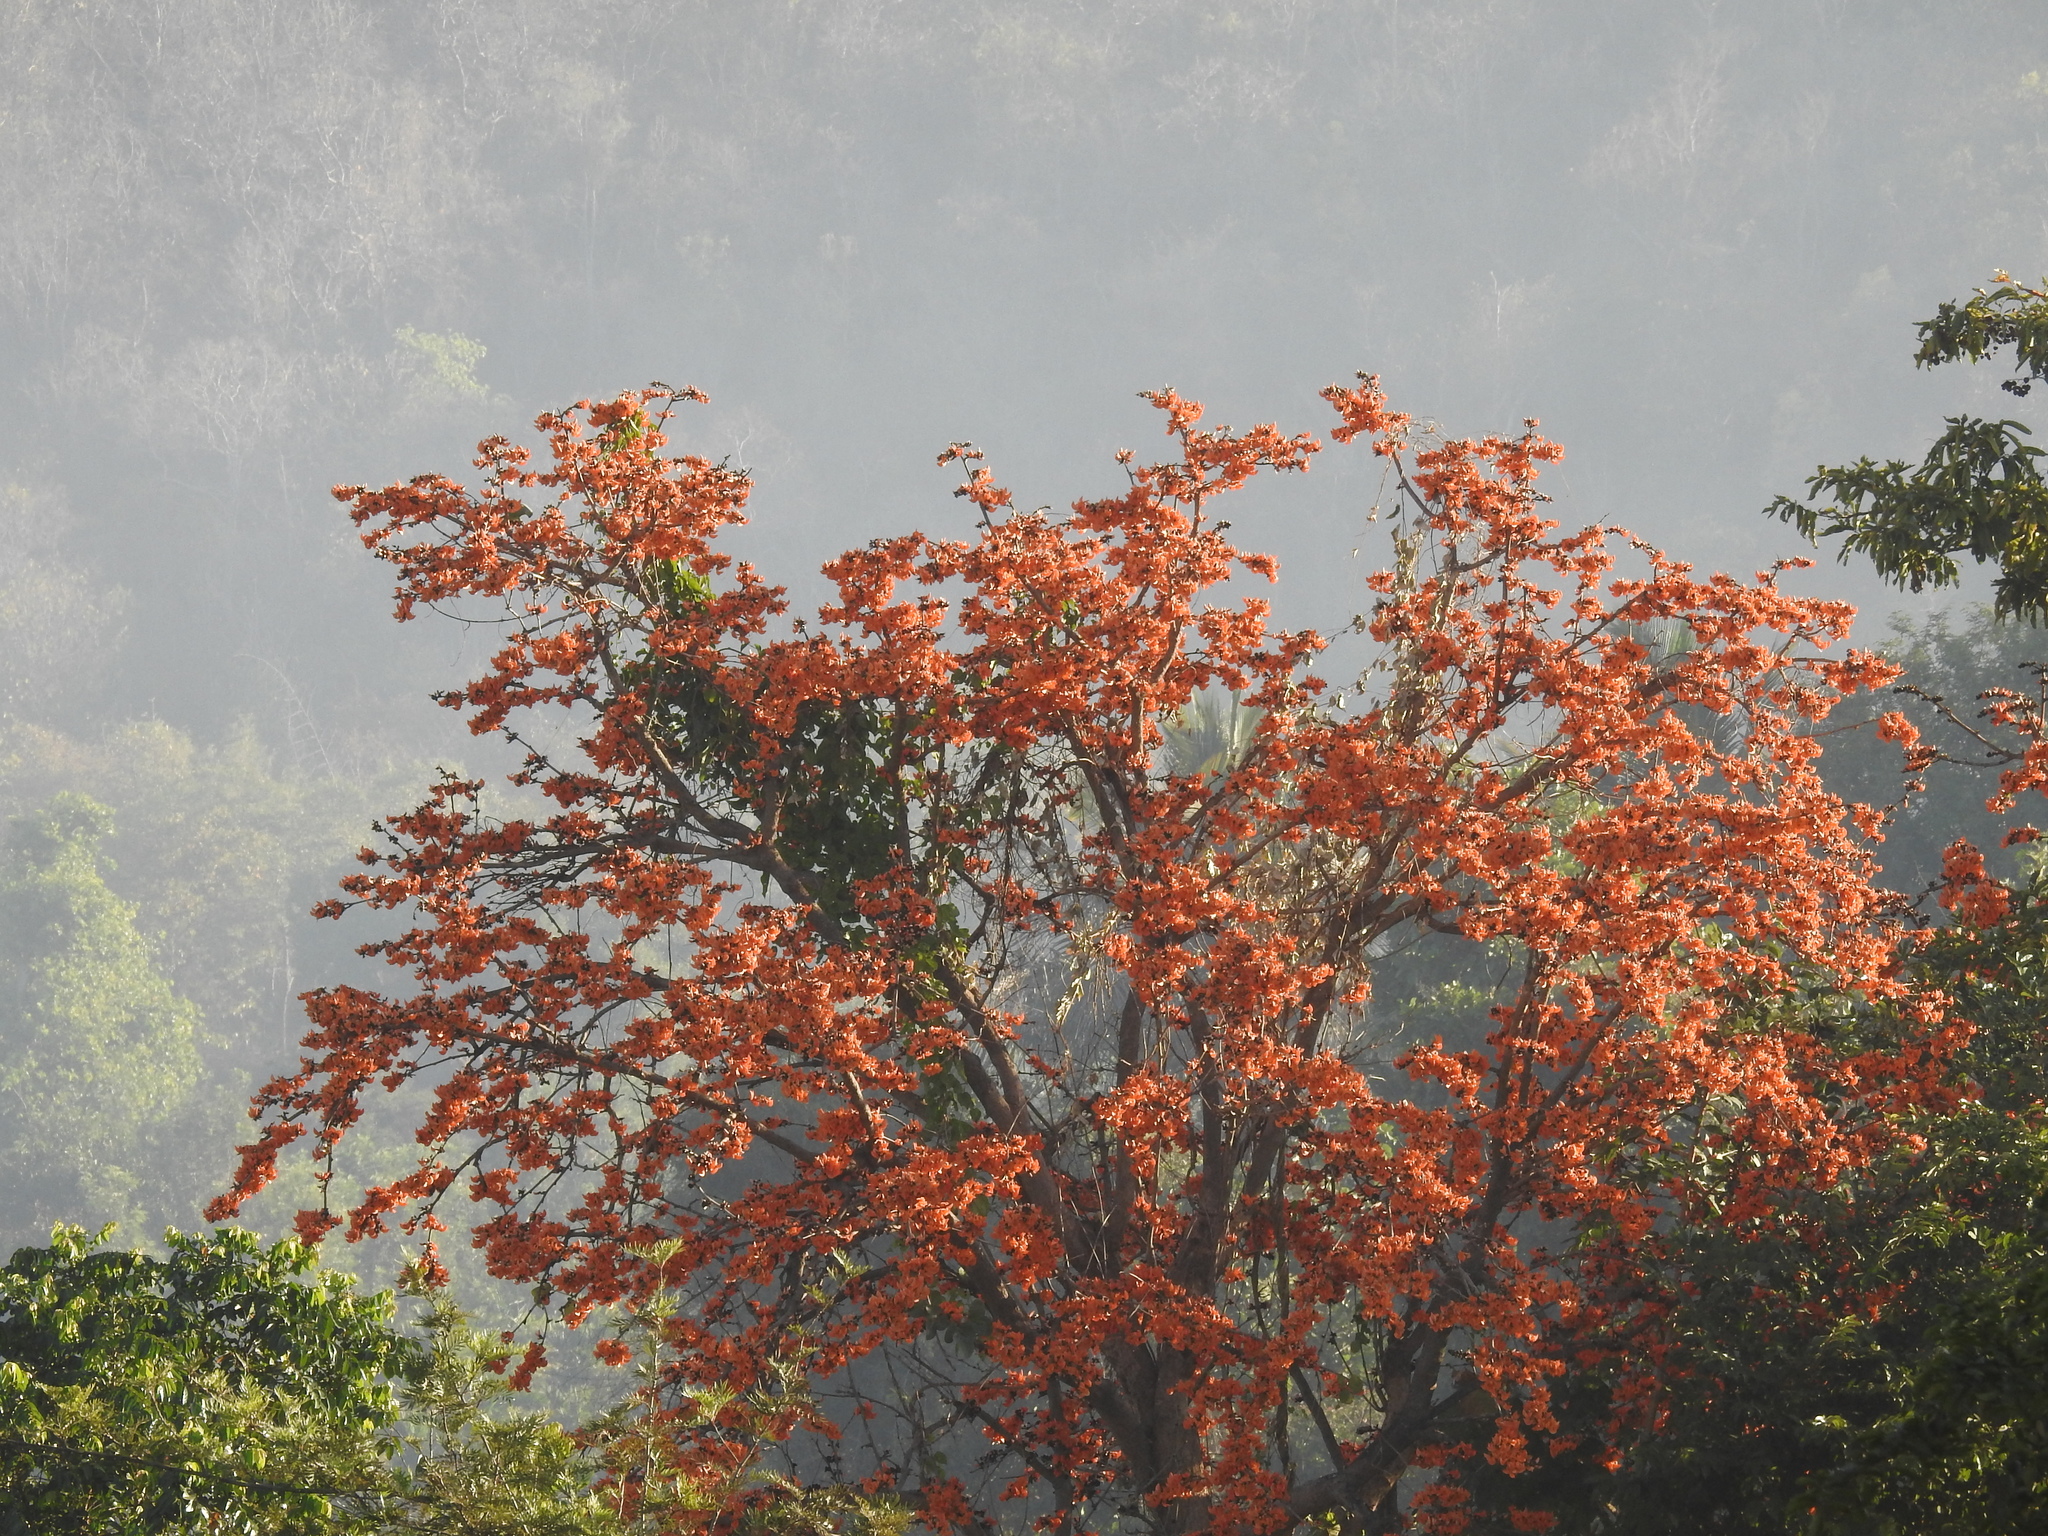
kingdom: Plantae
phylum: Tracheophyta
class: Magnoliopsida
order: Fabales
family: Fabaceae
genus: Butea
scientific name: Butea monosperma
